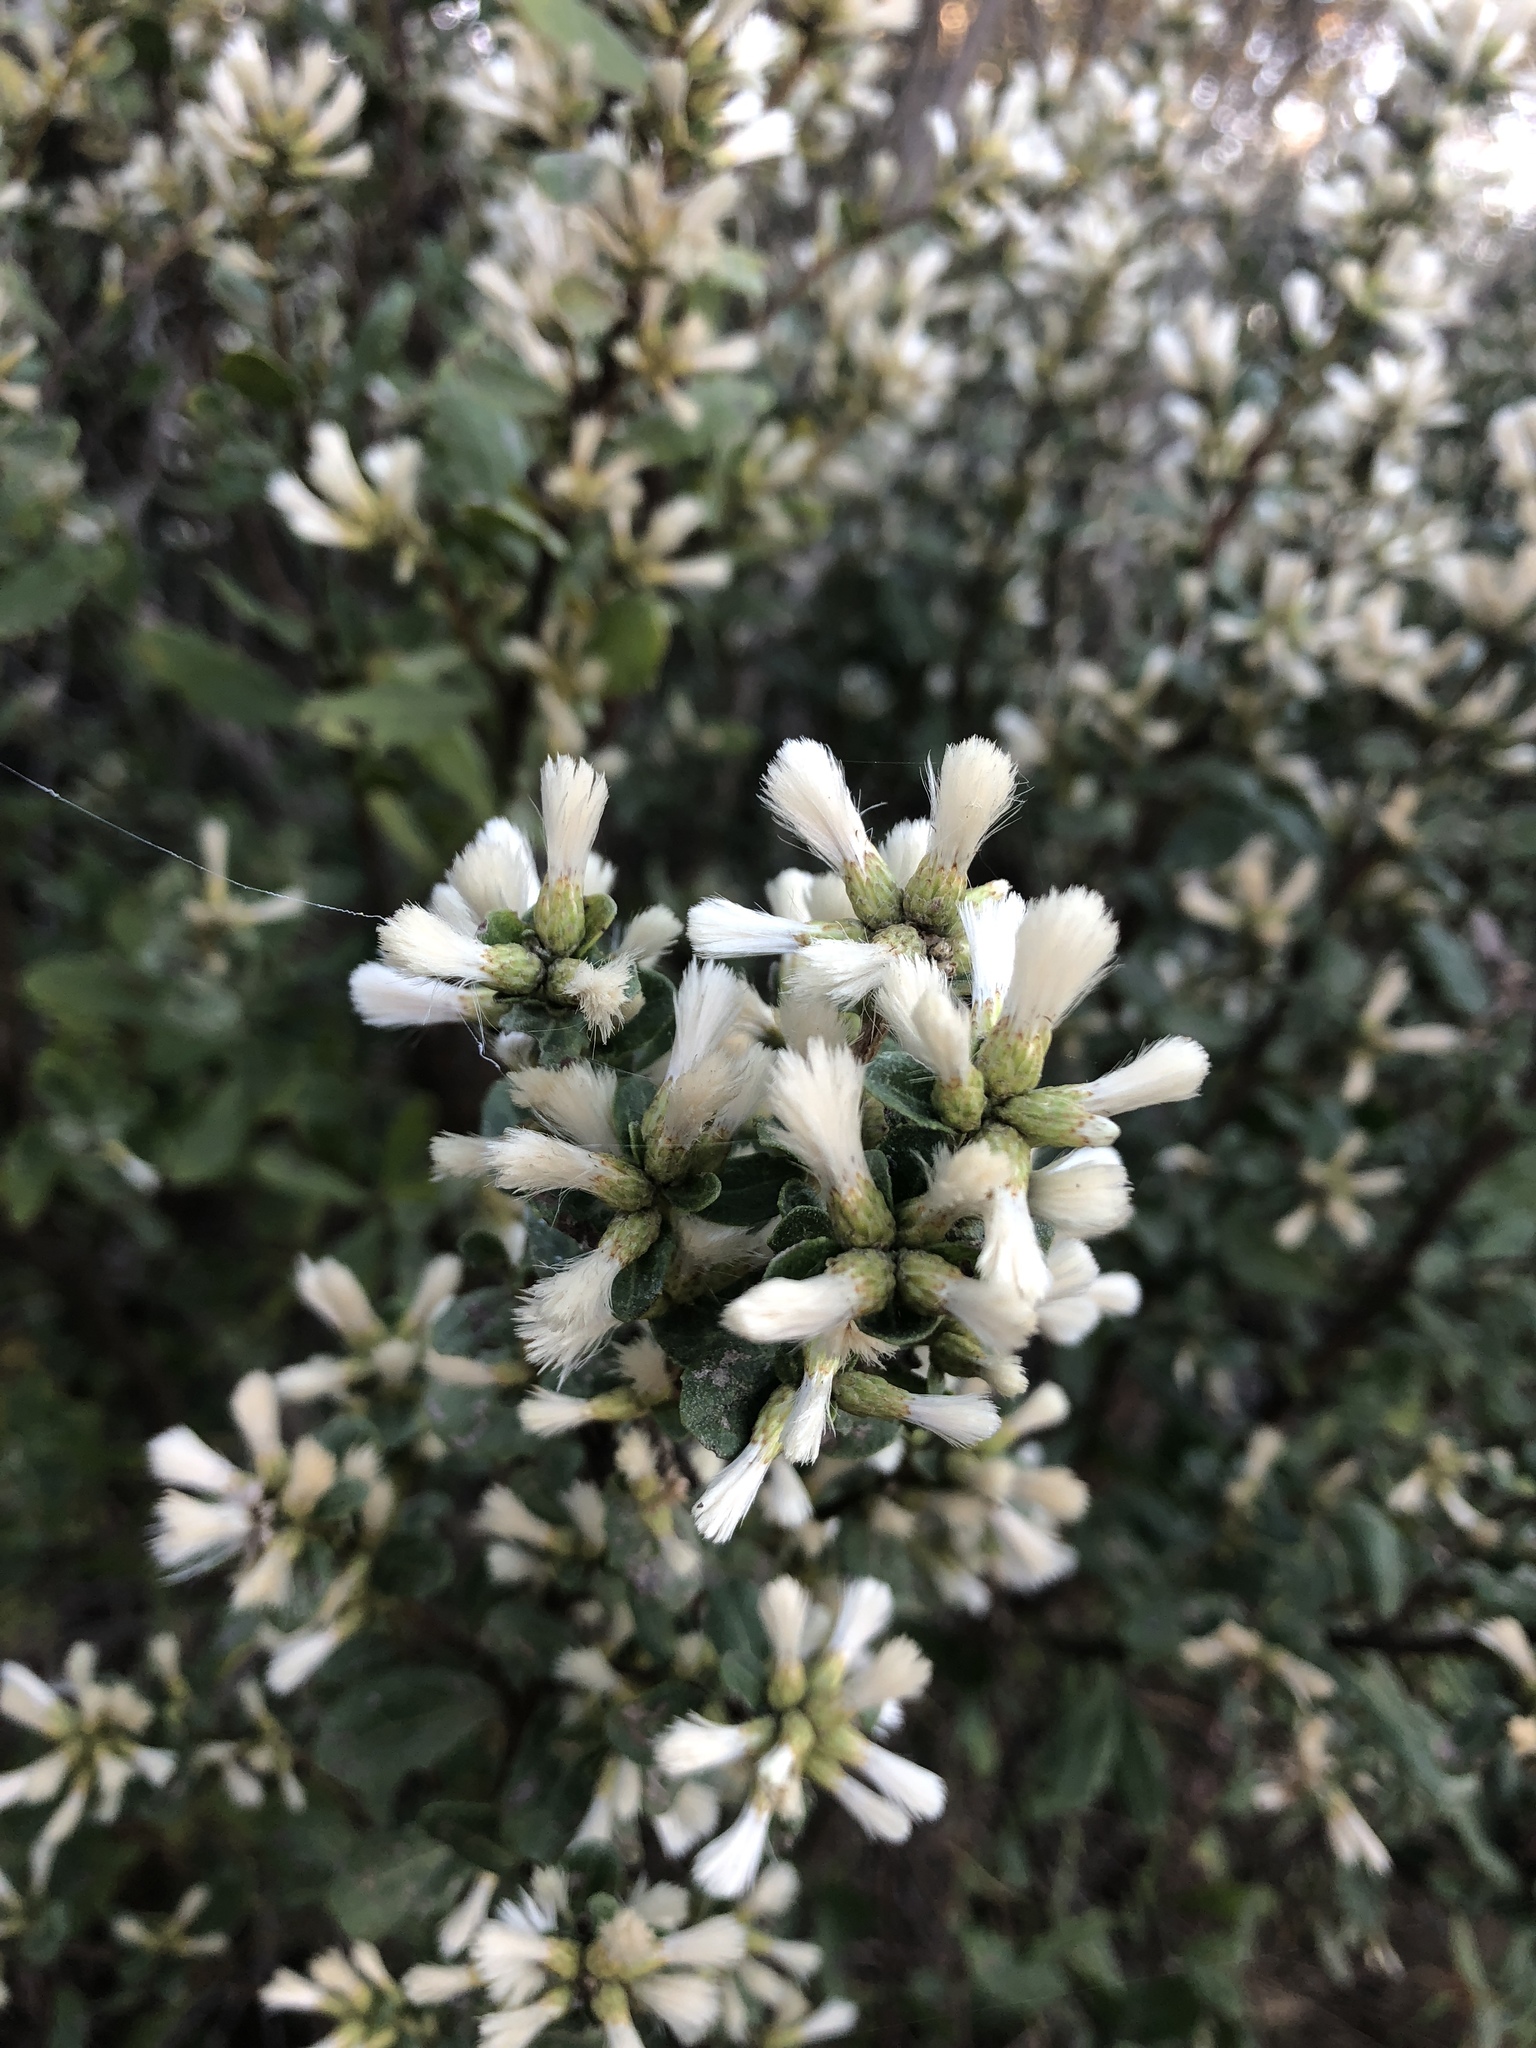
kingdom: Plantae
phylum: Tracheophyta
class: Magnoliopsida
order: Asterales
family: Asteraceae
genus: Baccharis
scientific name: Baccharis pilularis
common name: Coyotebrush
